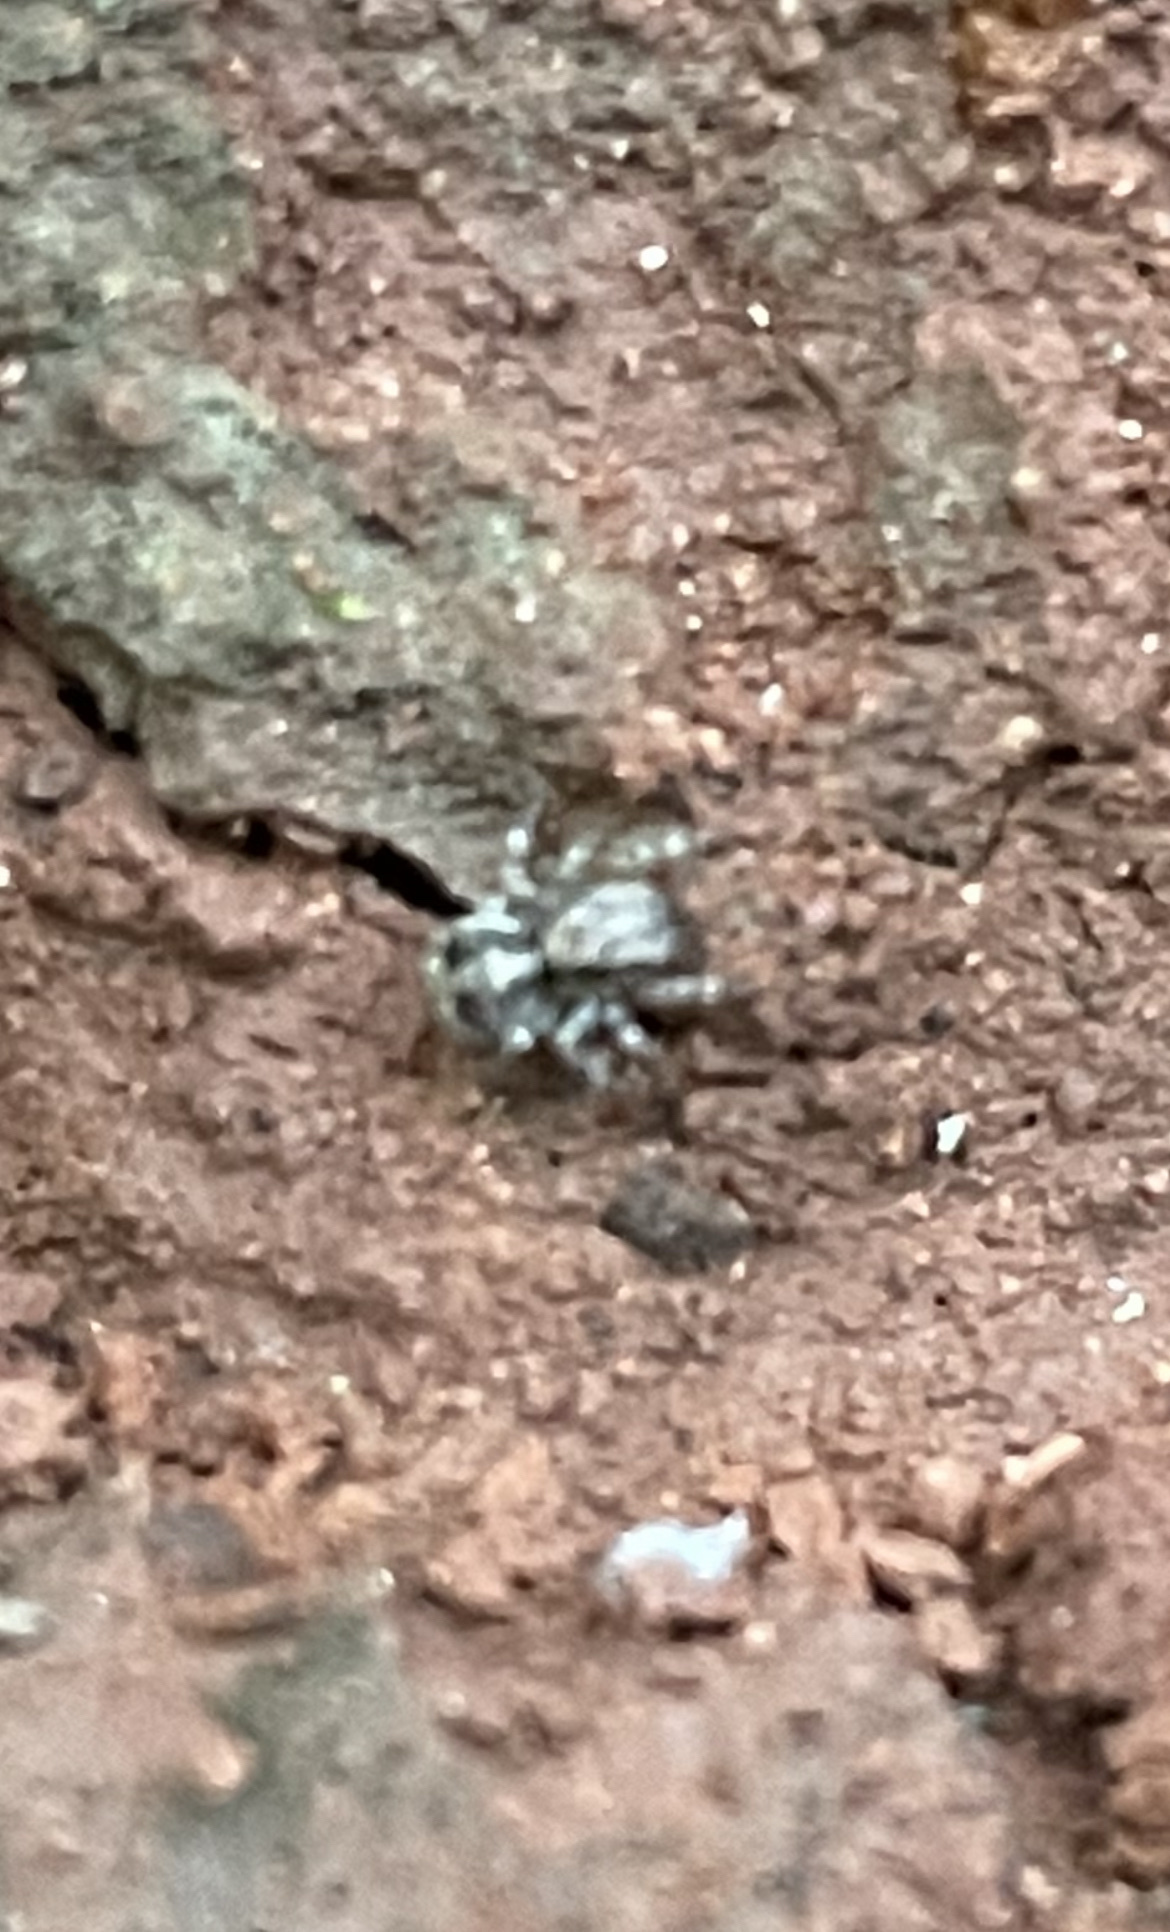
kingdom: Animalia
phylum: Arthropoda
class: Arachnida
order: Araneae
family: Salticidae
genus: Naphrys
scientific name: Naphrys pulex
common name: Flea jumping spider
